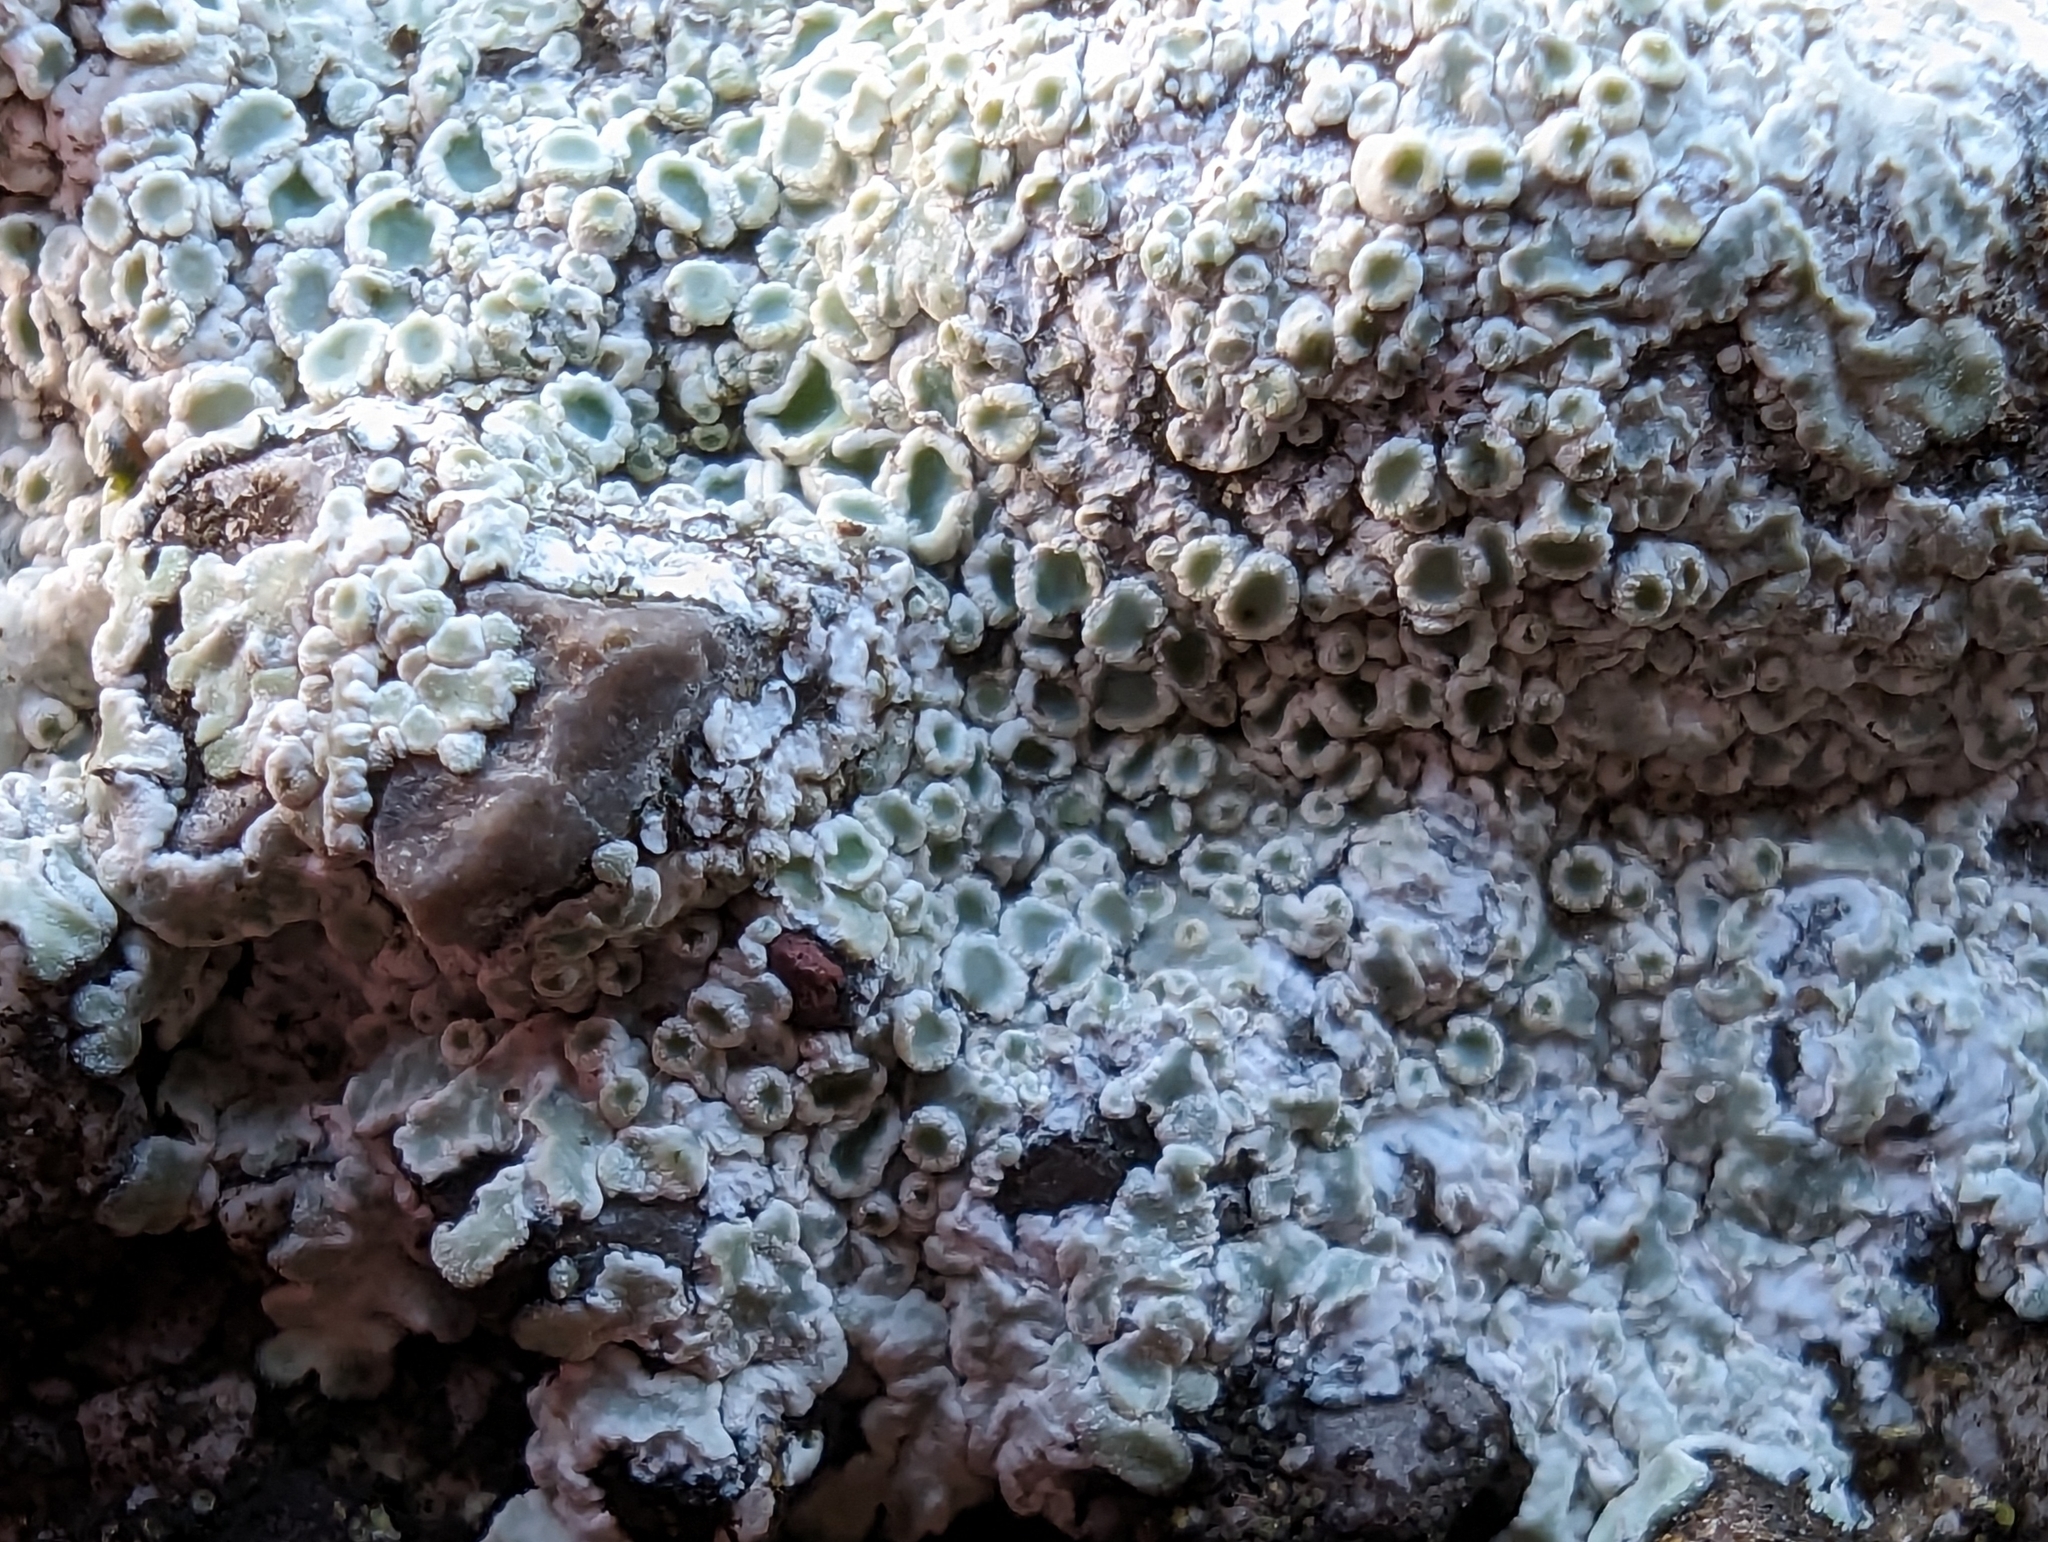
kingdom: Fungi
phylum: Ascomycota
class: Lecanoromycetes
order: Lecanorales
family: Lecanoraceae
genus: Protoparmeliopsis
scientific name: Protoparmeliopsis muralis
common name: Stonewall rim lichen
